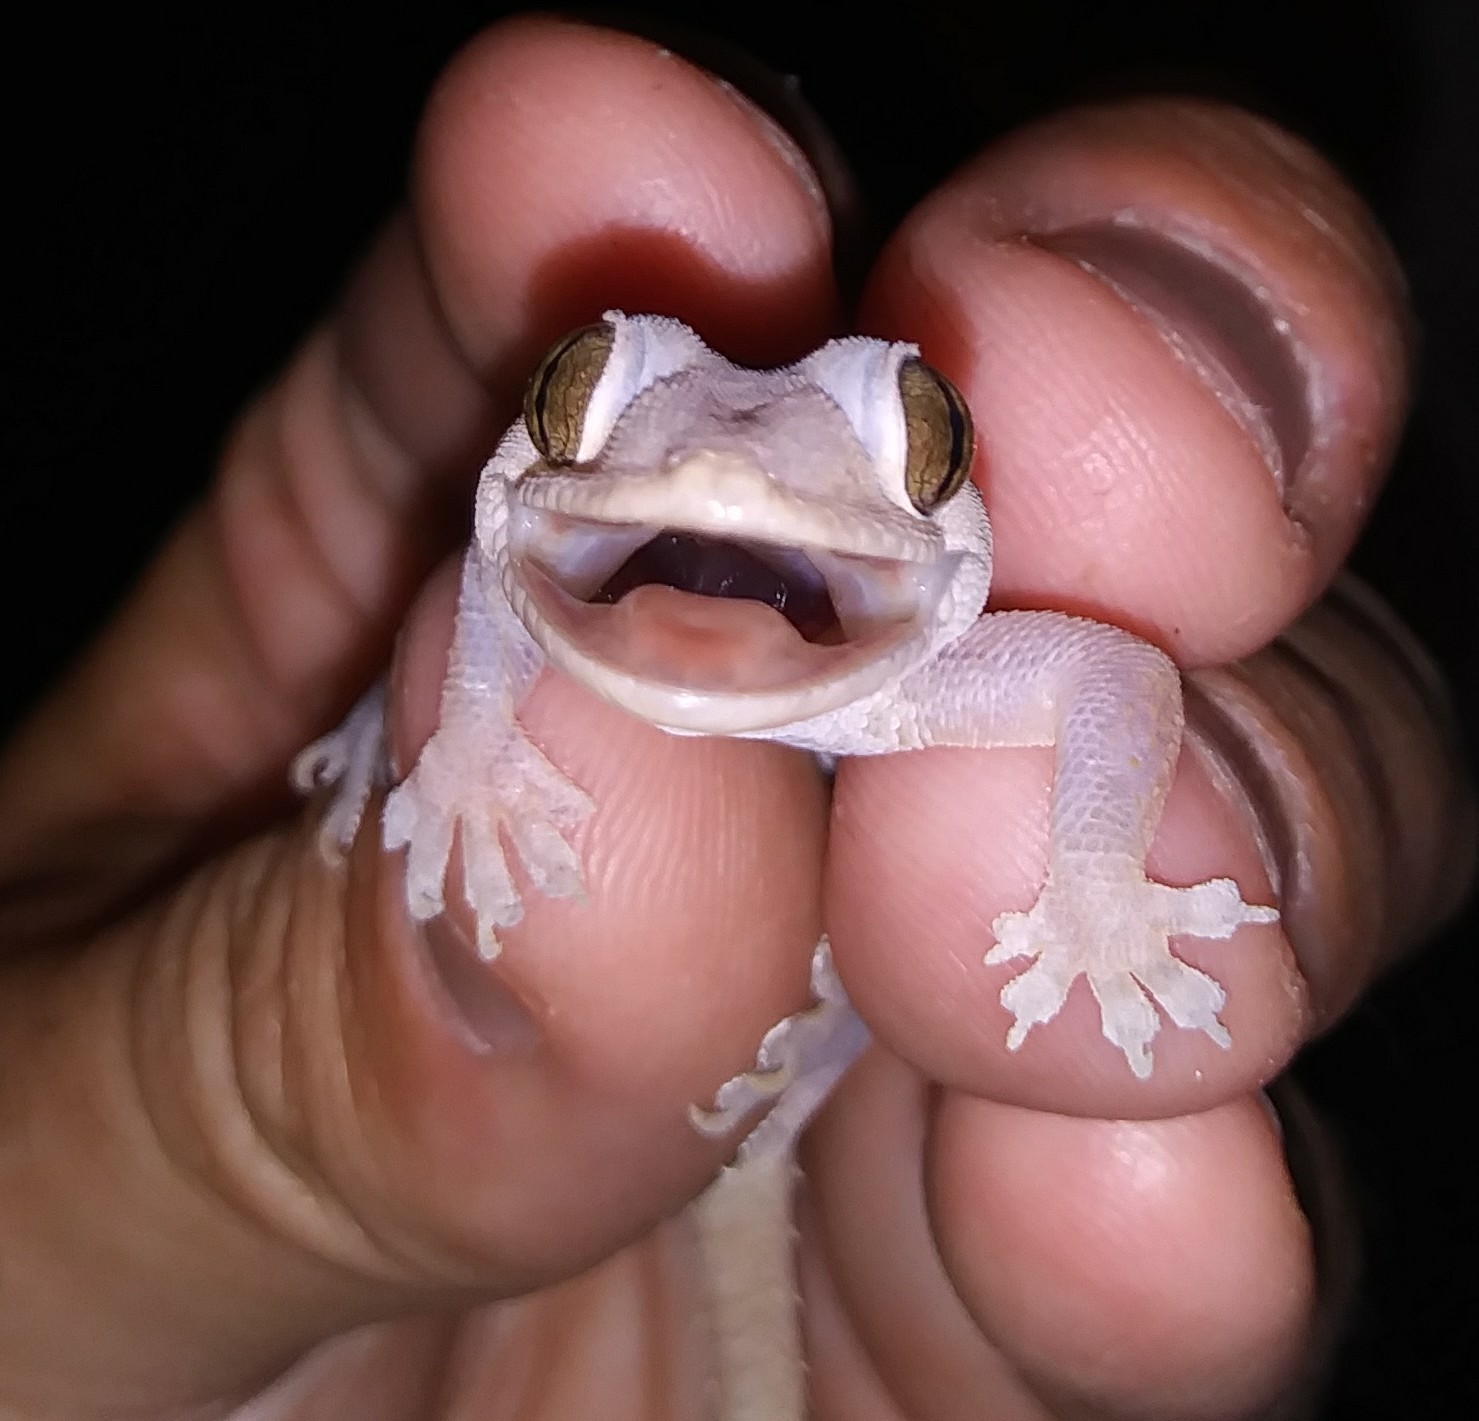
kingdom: Animalia
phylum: Chordata
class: Squamata
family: Gekkonidae
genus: Hemidactylus
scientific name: Hemidactylus mabouia
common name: House gecko
